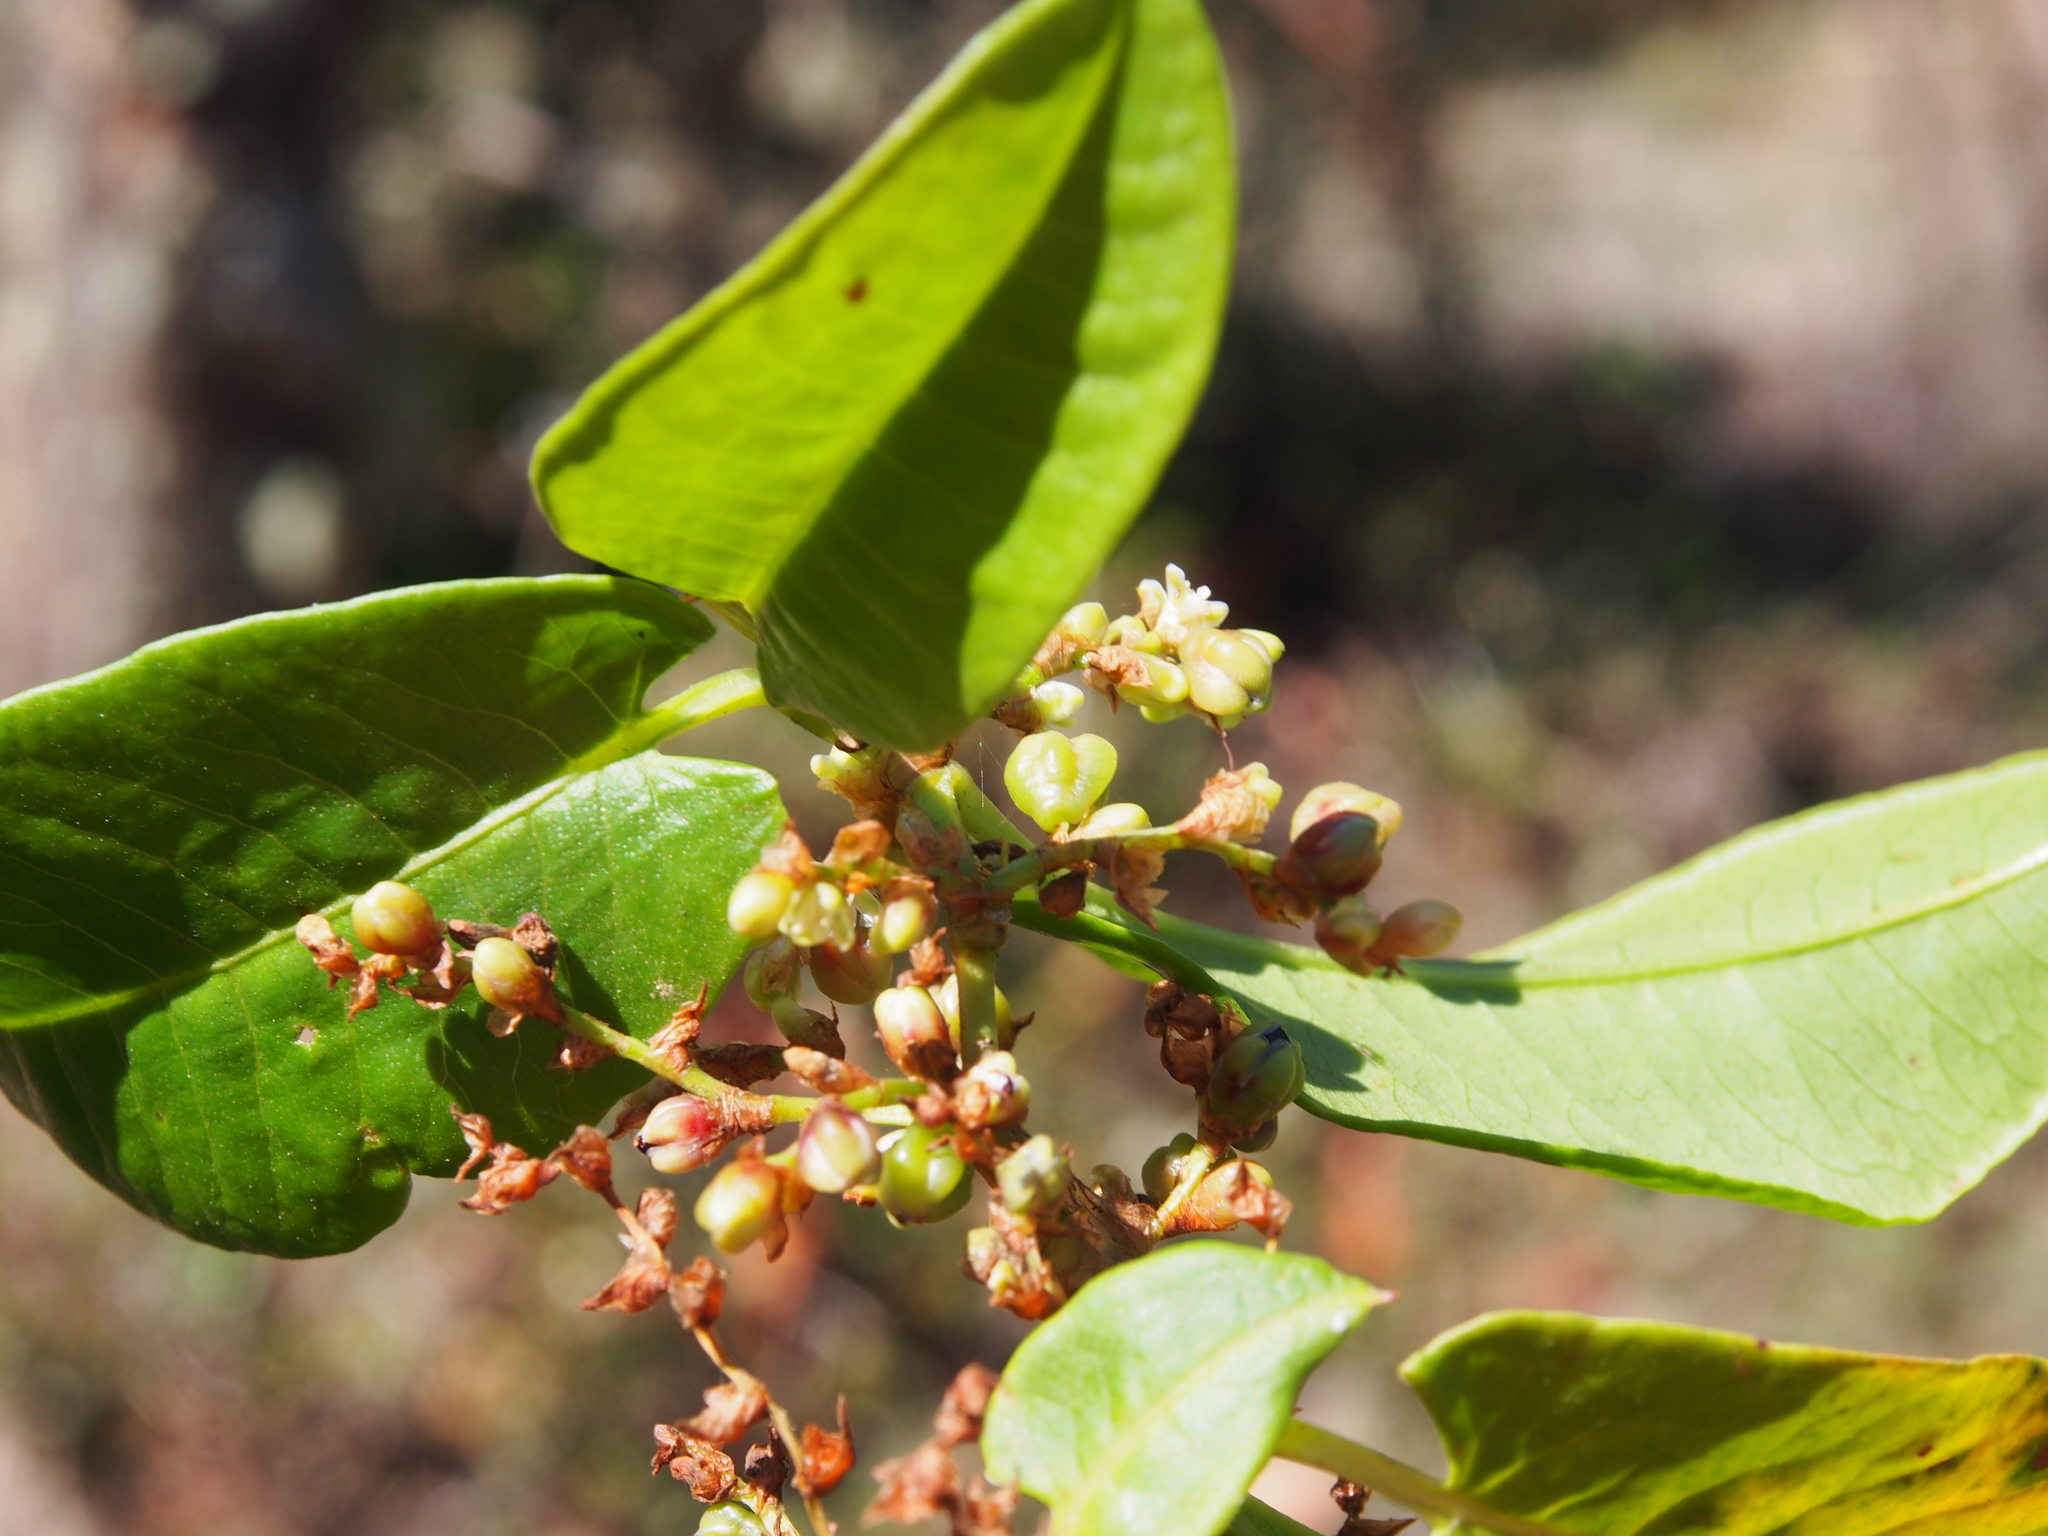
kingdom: Plantae
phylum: Tracheophyta
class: Magnoliopsida
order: Caryophyllales
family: Polygonaceae
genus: Muehlenbeckia
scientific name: Muehlenbeckia tamnifolia
